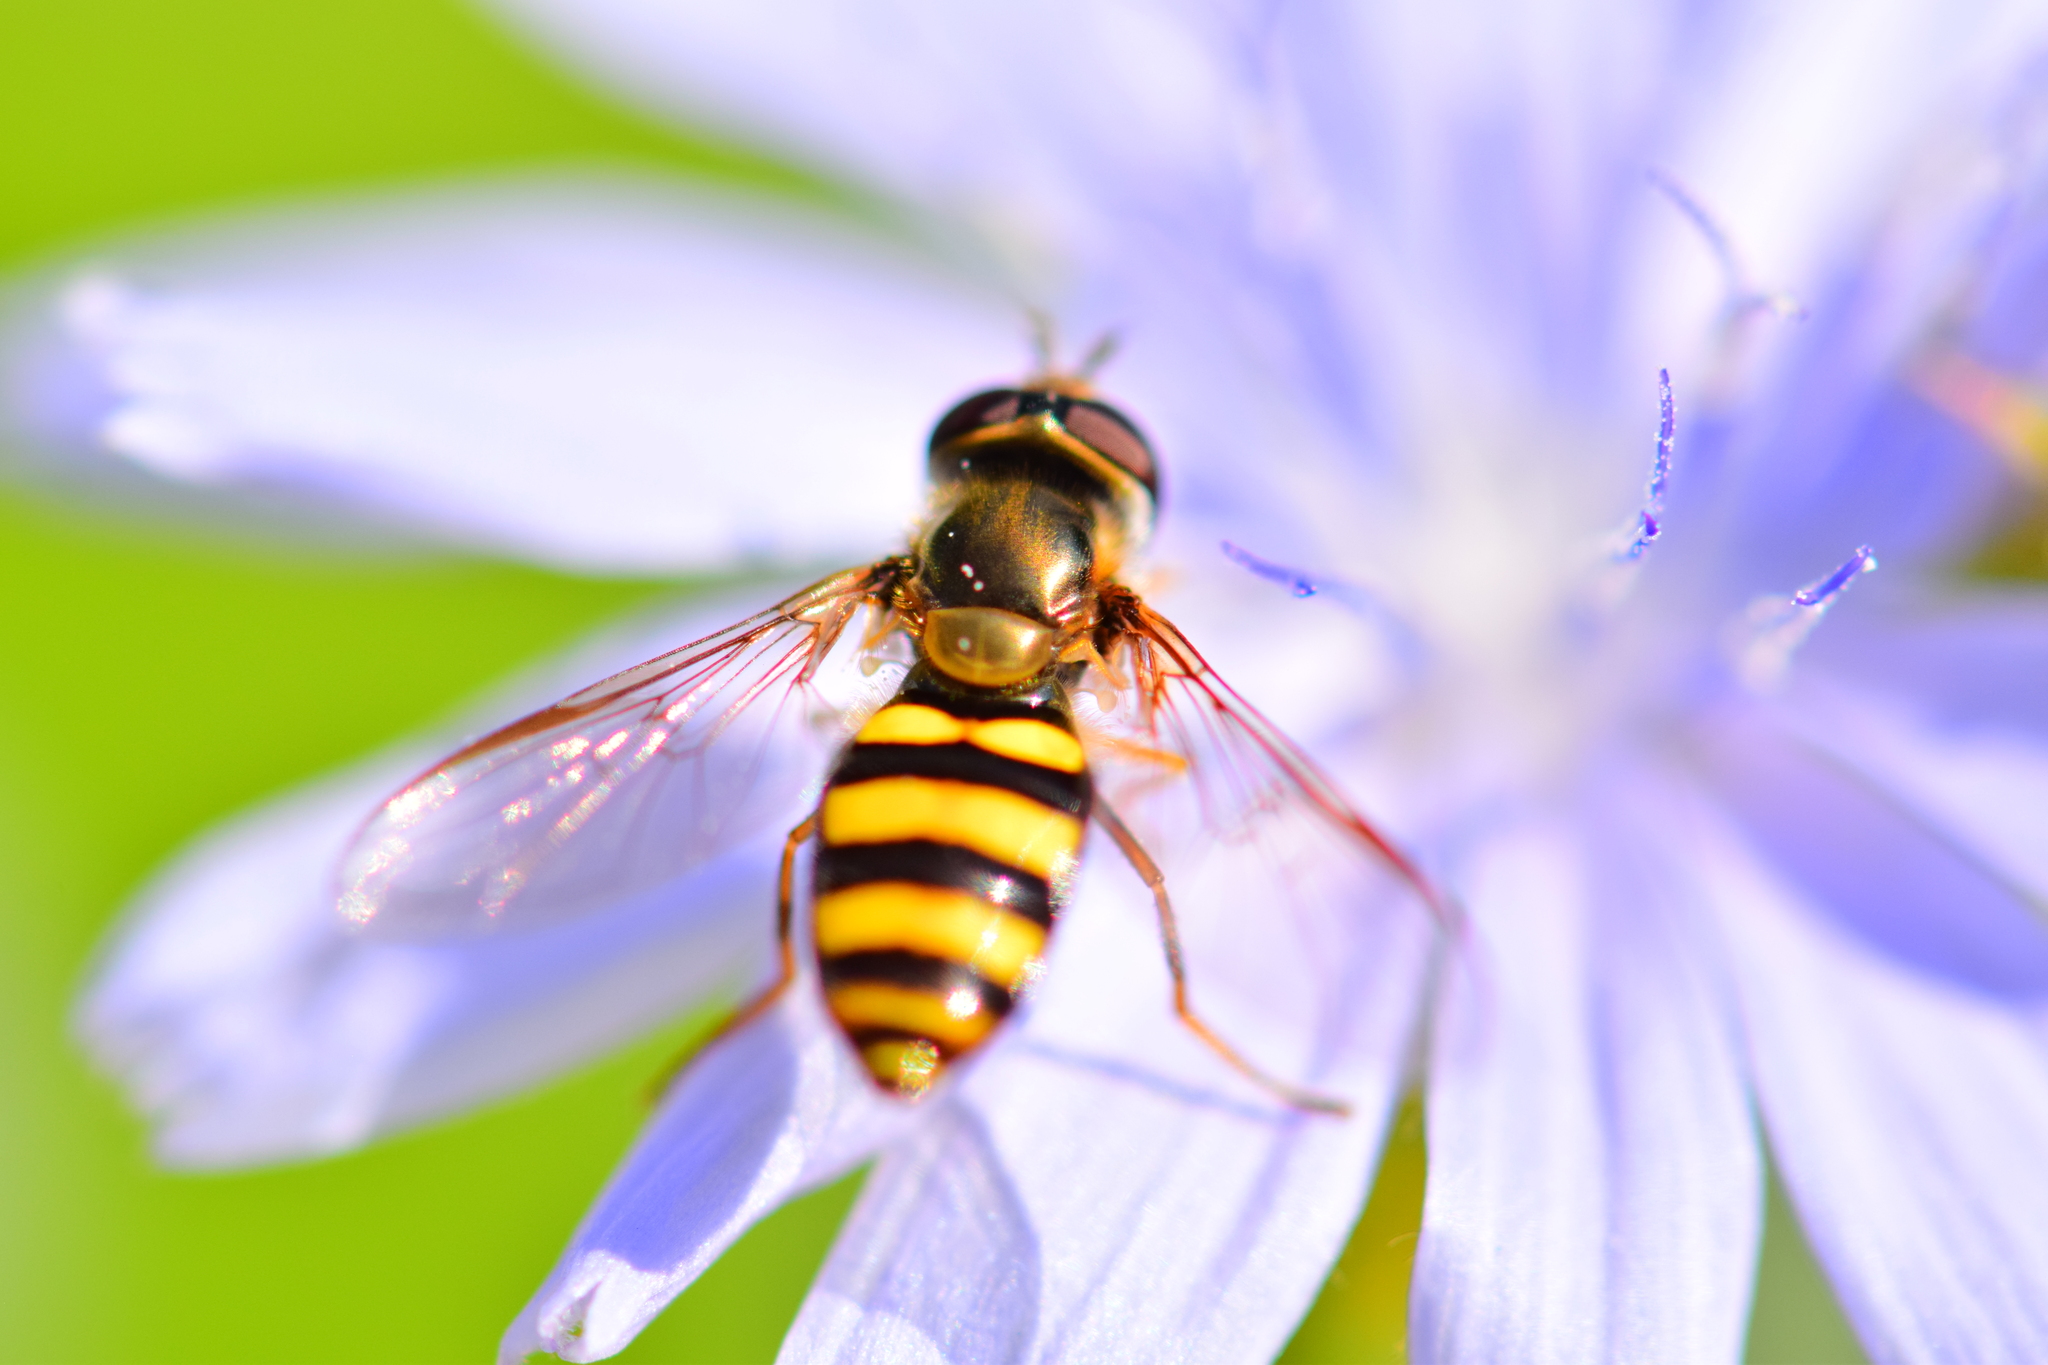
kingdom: Animalia
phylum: Arthropoda
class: Insecta
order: Diptera
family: Syrphidae
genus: Eupeodes
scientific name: Eupeodes
